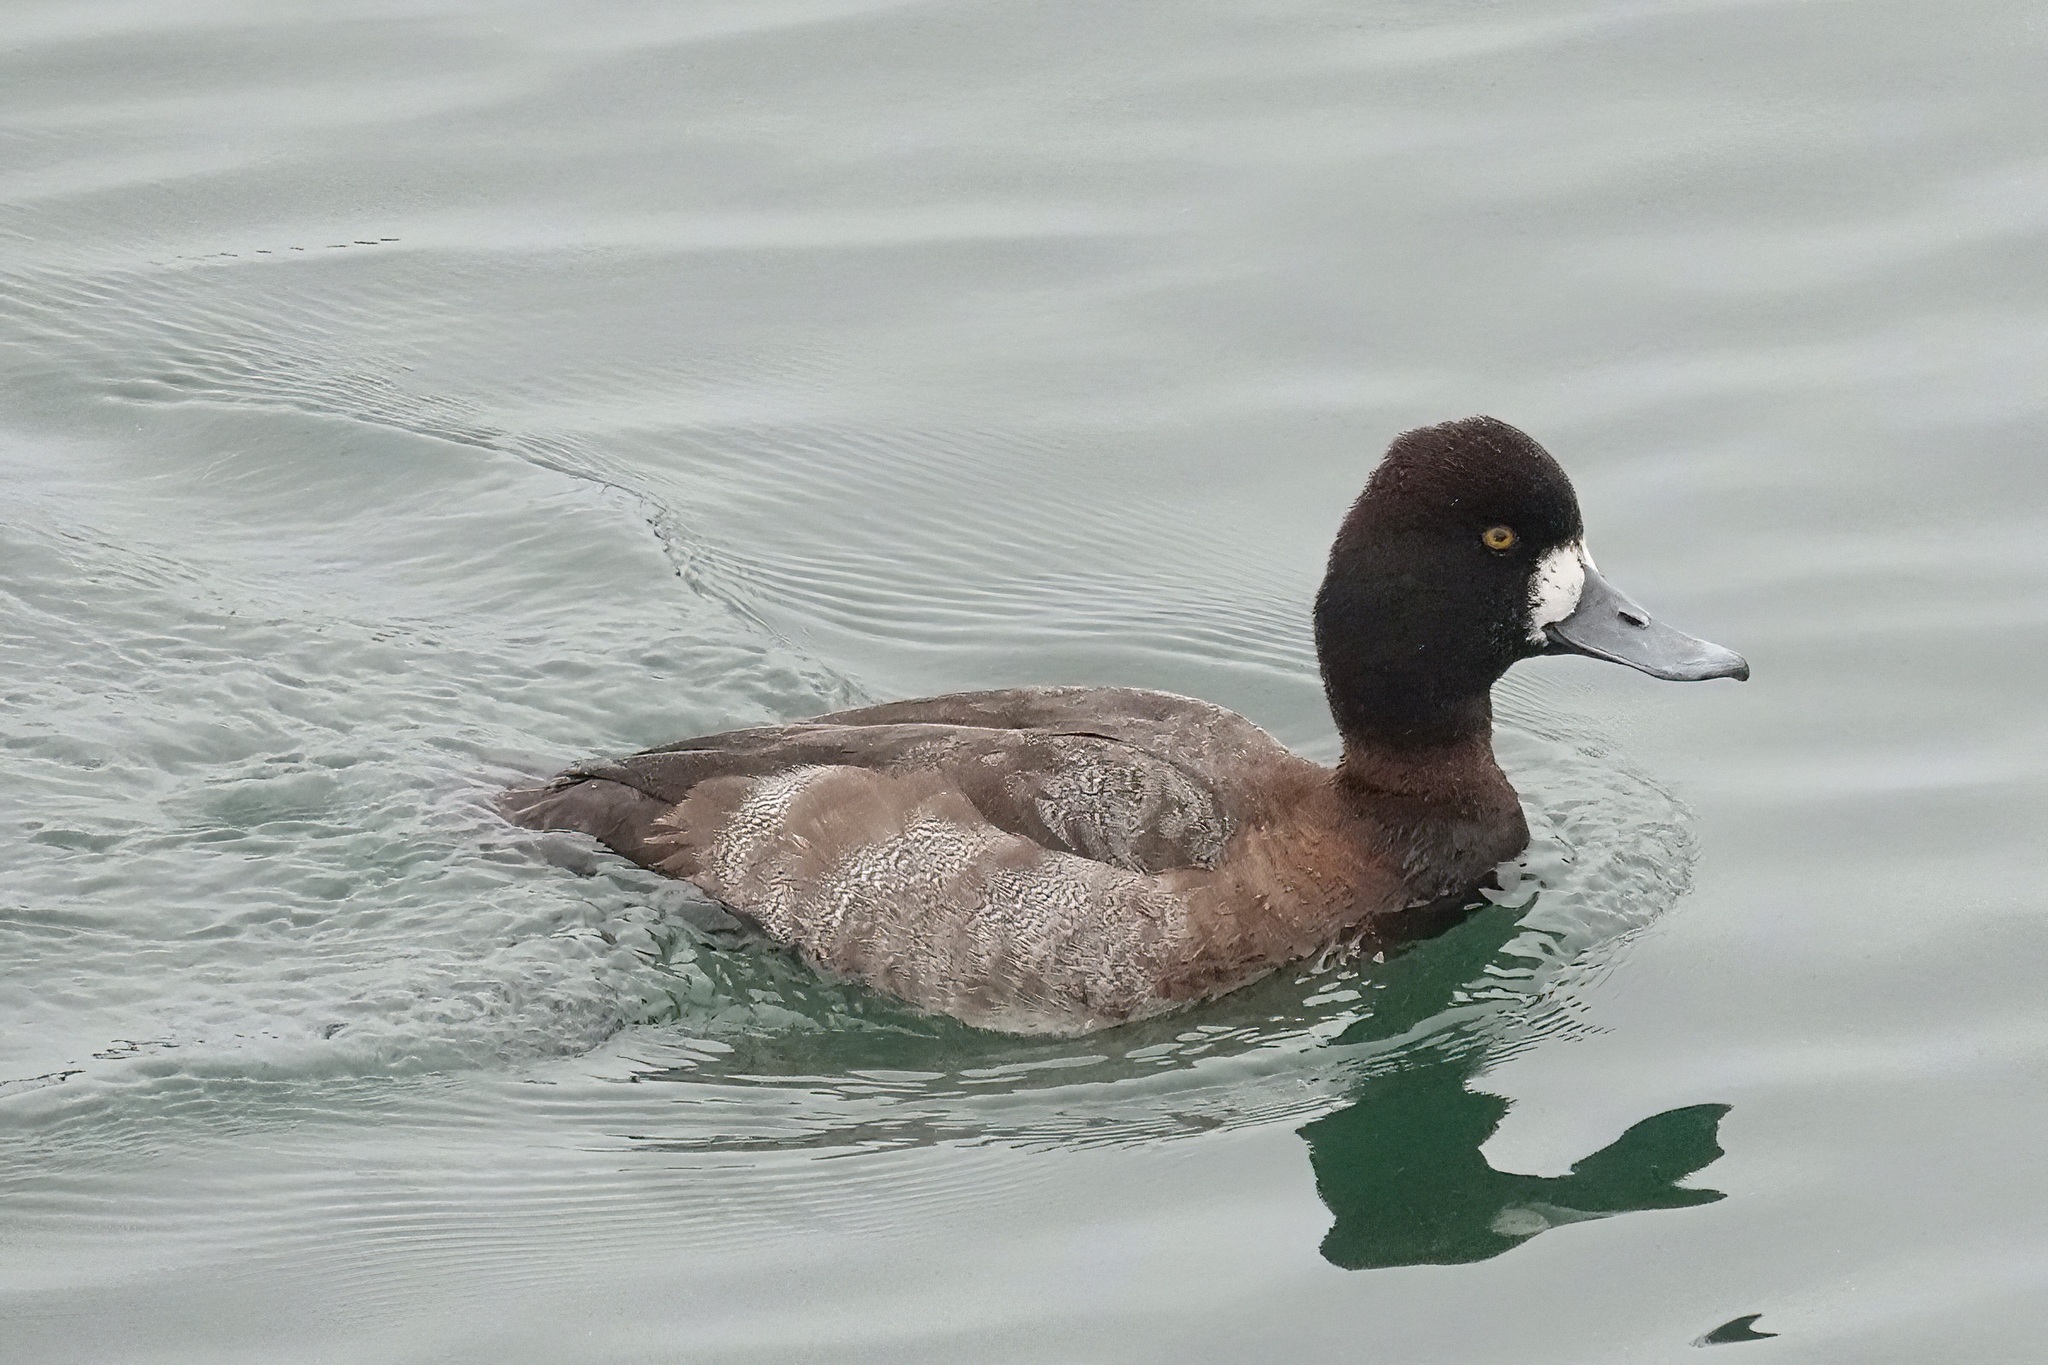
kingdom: Animalia
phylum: Chordata
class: Aves
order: Anseriformes
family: Anatidae
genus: Aythya
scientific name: Aythya affinis
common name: Lesser scaup
